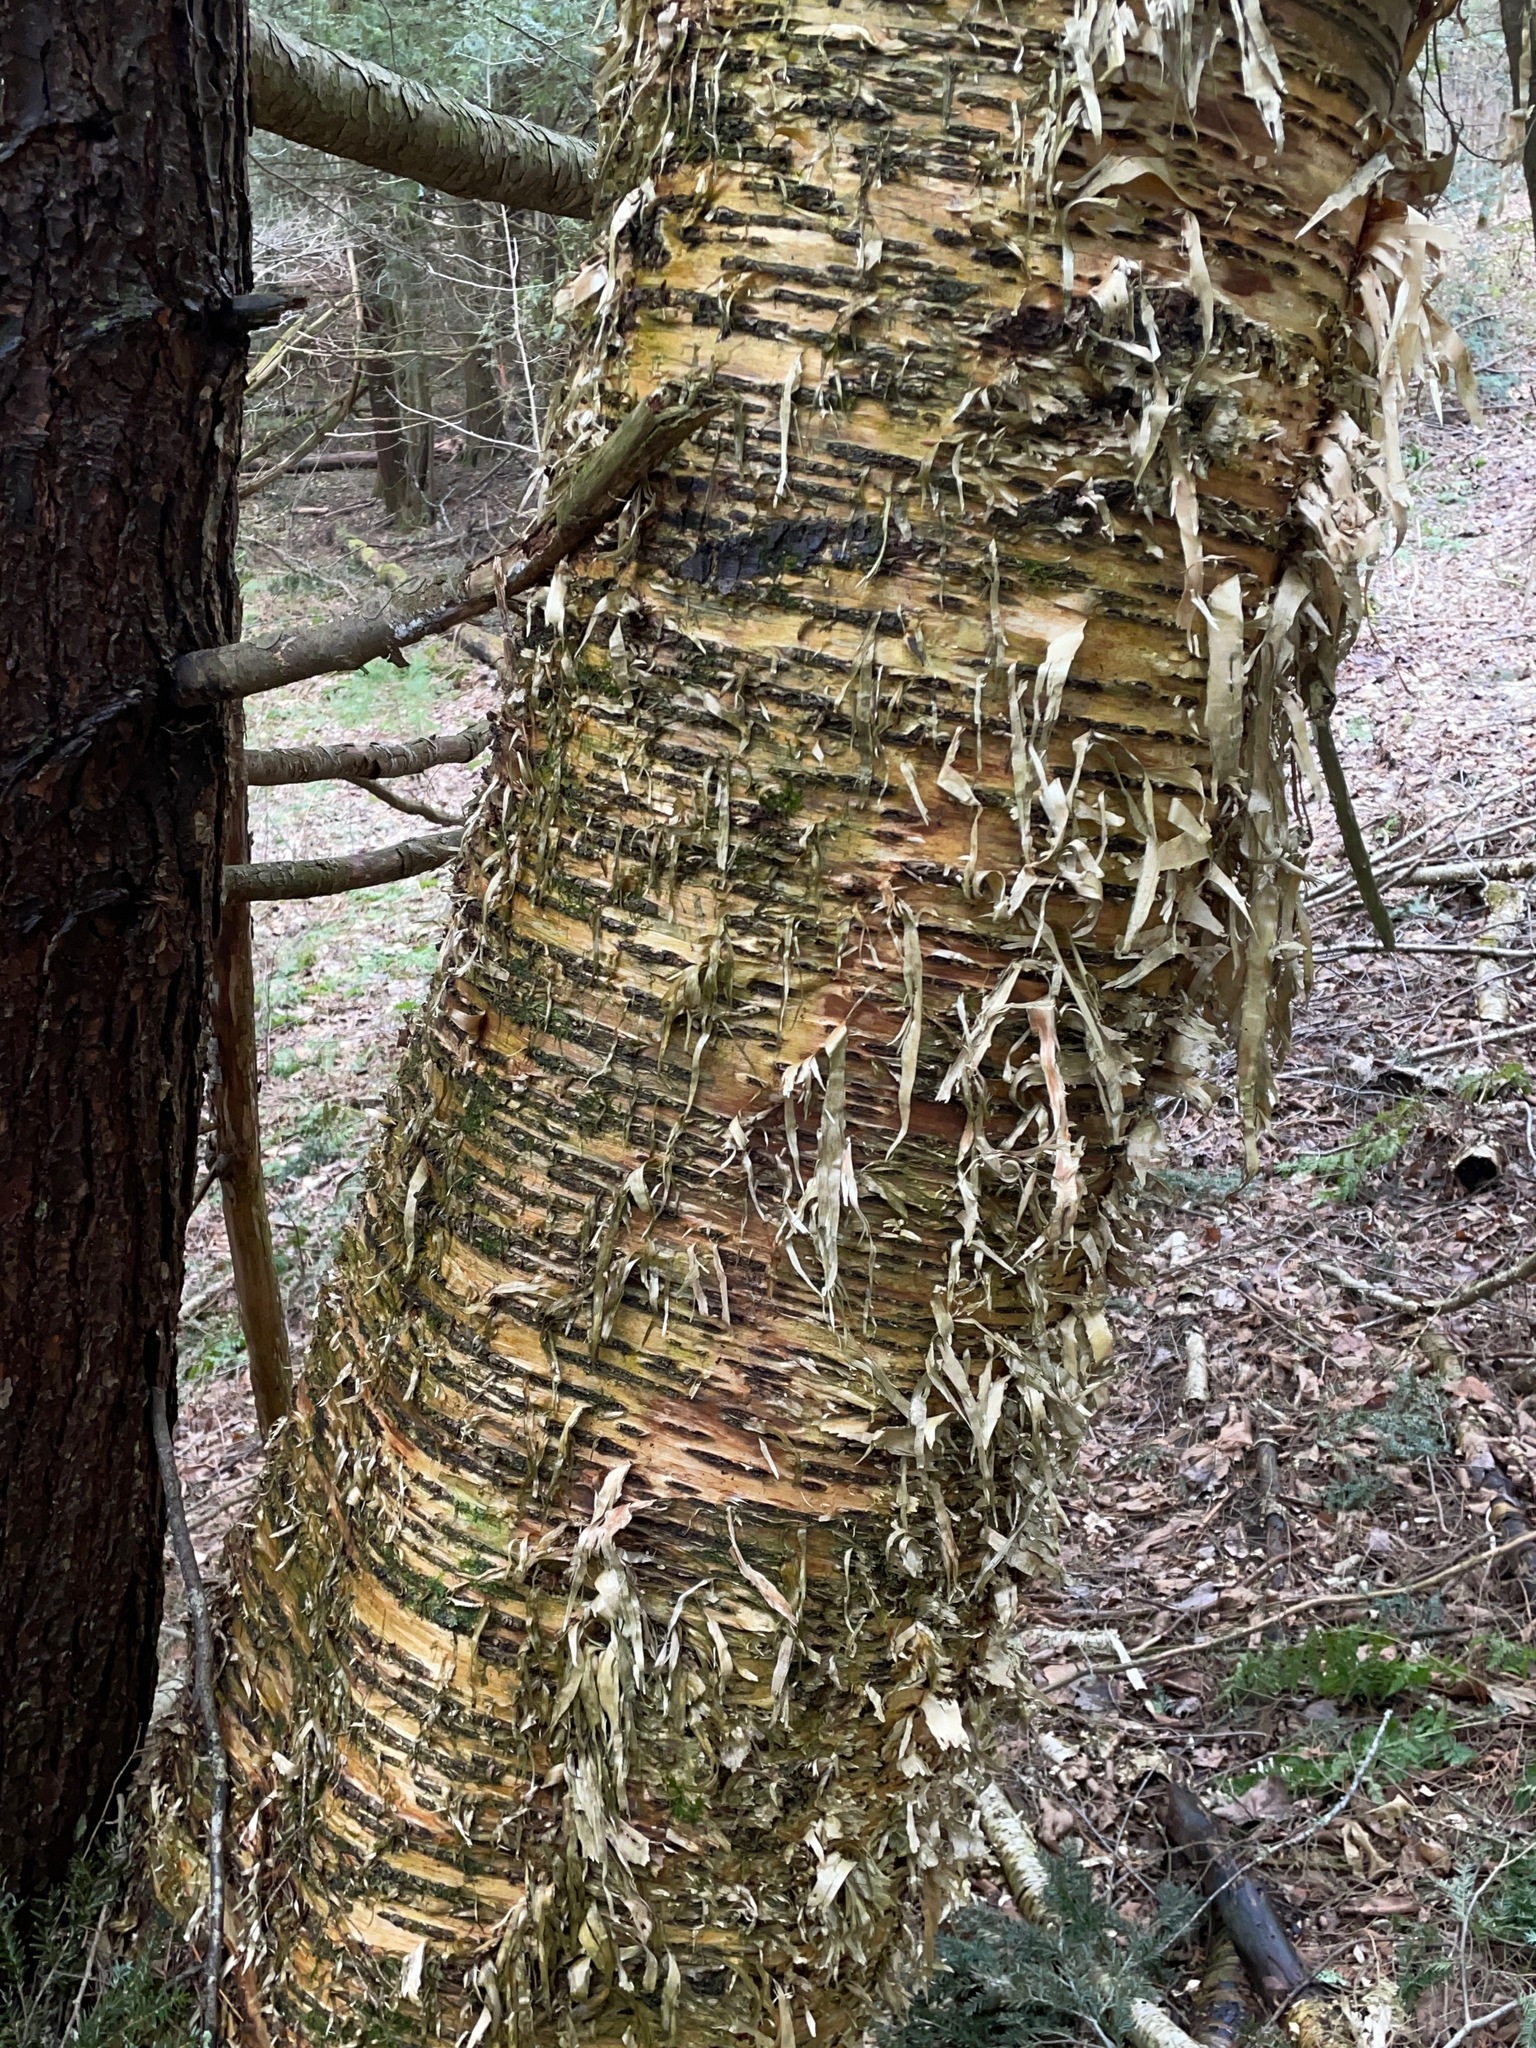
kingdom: Plantae
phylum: Tracheophyta
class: Magnoliopsida
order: Fagales
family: Betulaceae
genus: Betula
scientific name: Betula alleghaniensis
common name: Yellow birch
